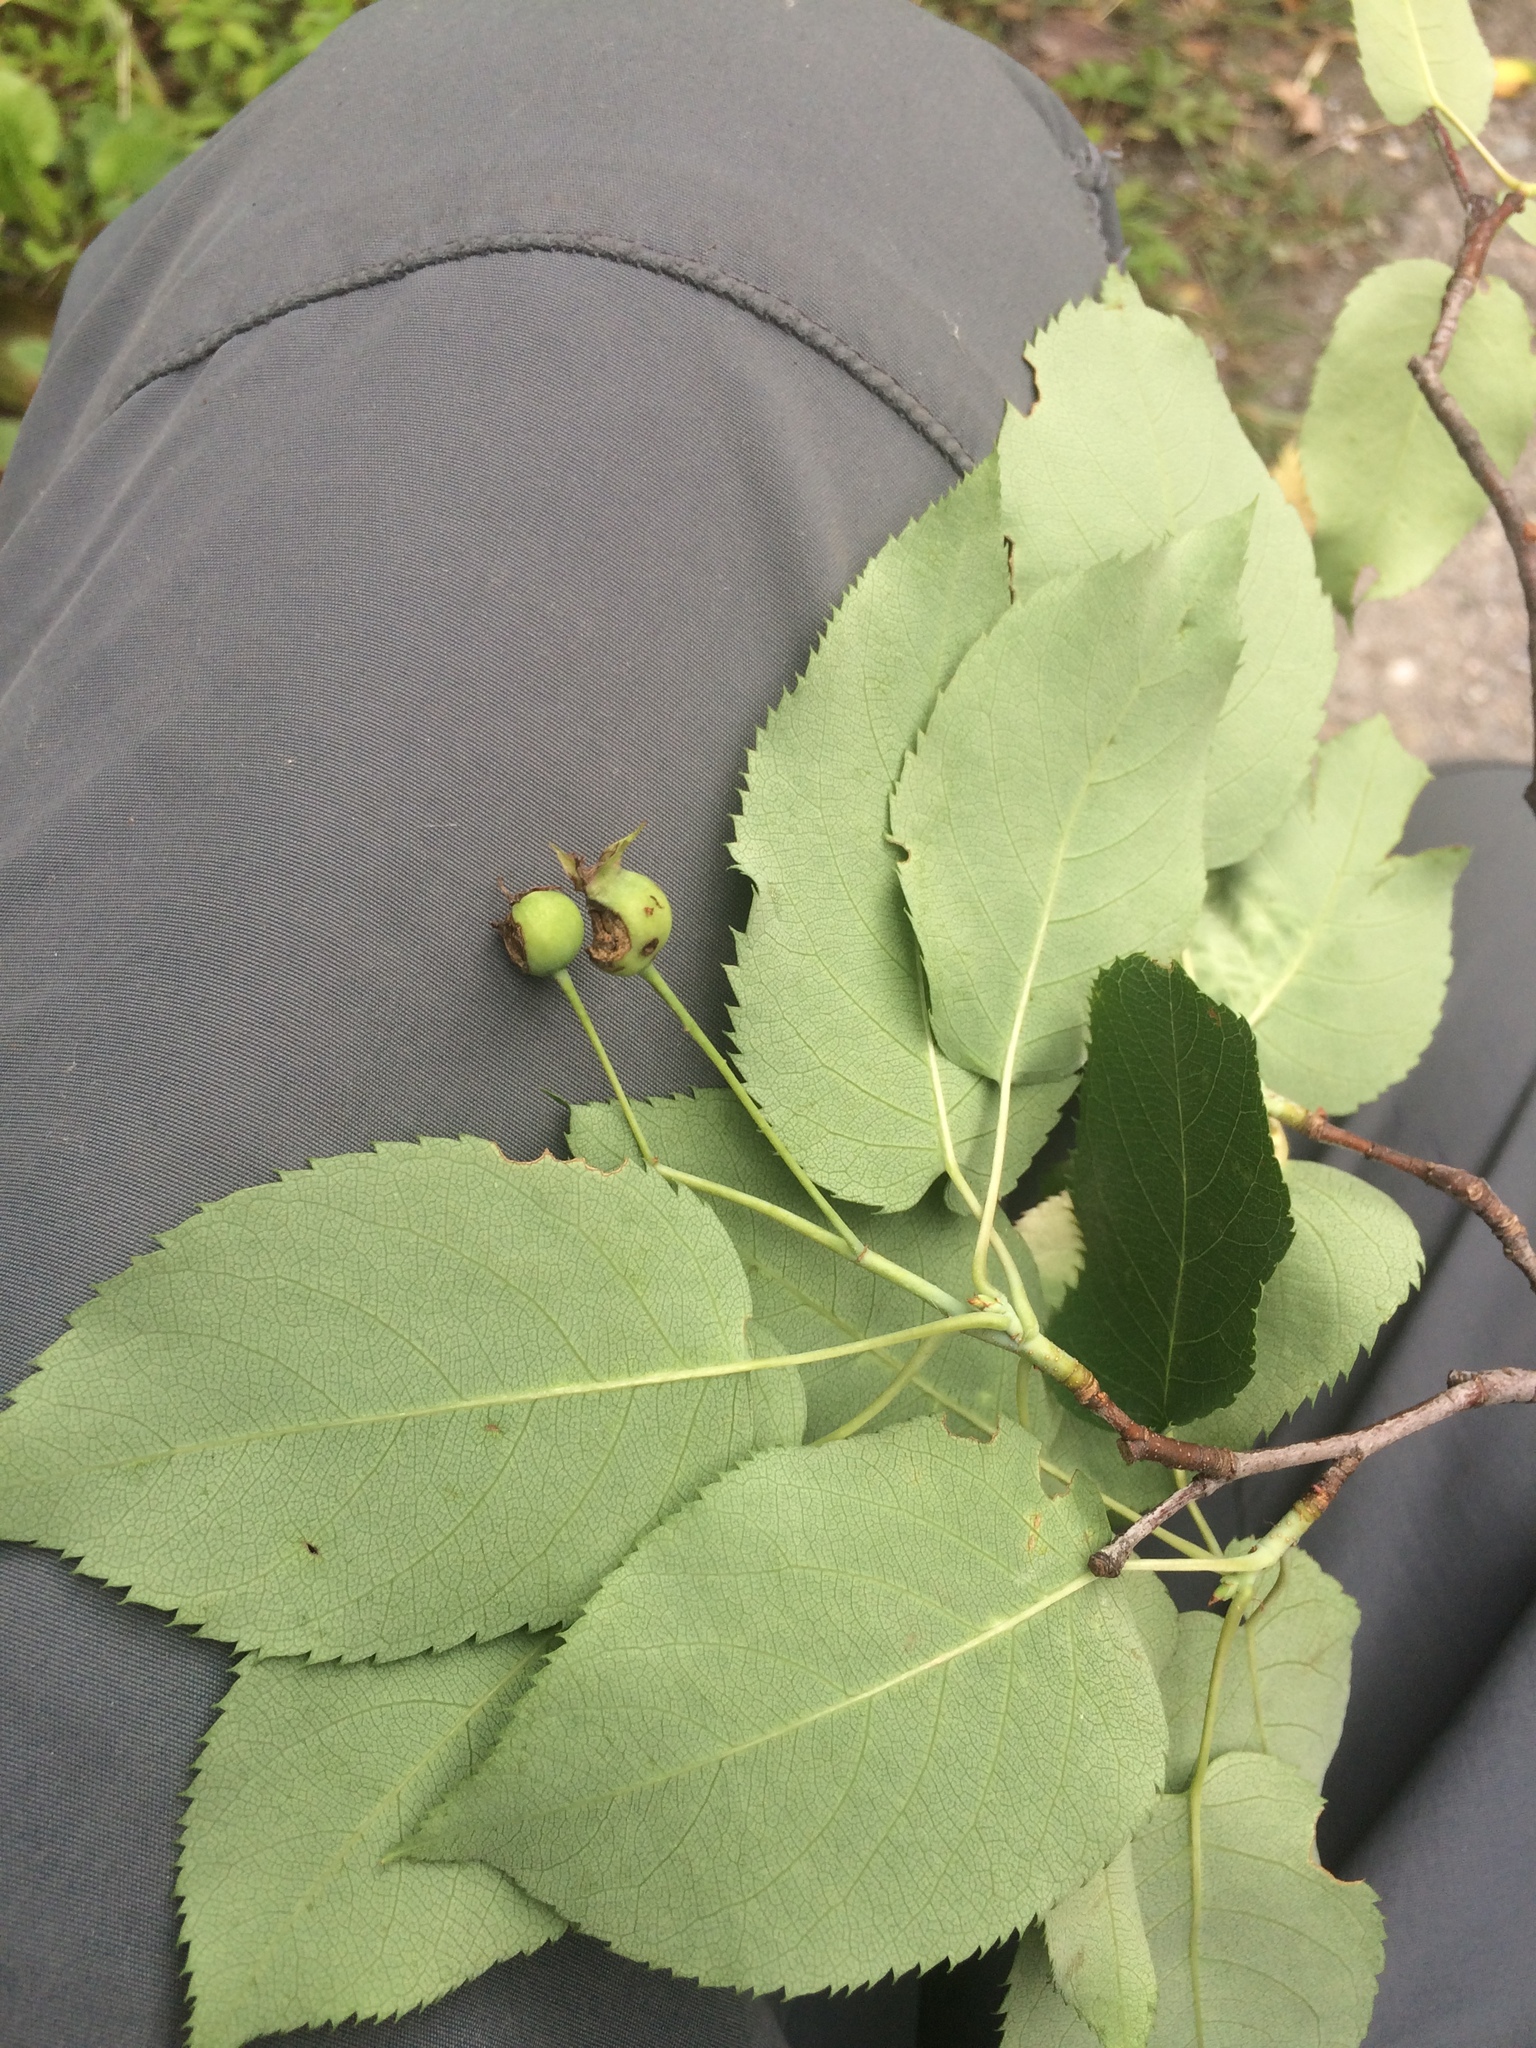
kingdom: Plantae
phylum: Tracheophyta
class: Magnoliopsida
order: Rosales
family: Rosaceae
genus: Amelanchier
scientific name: Amelanchier laevis
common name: Allegheny serviceberry
